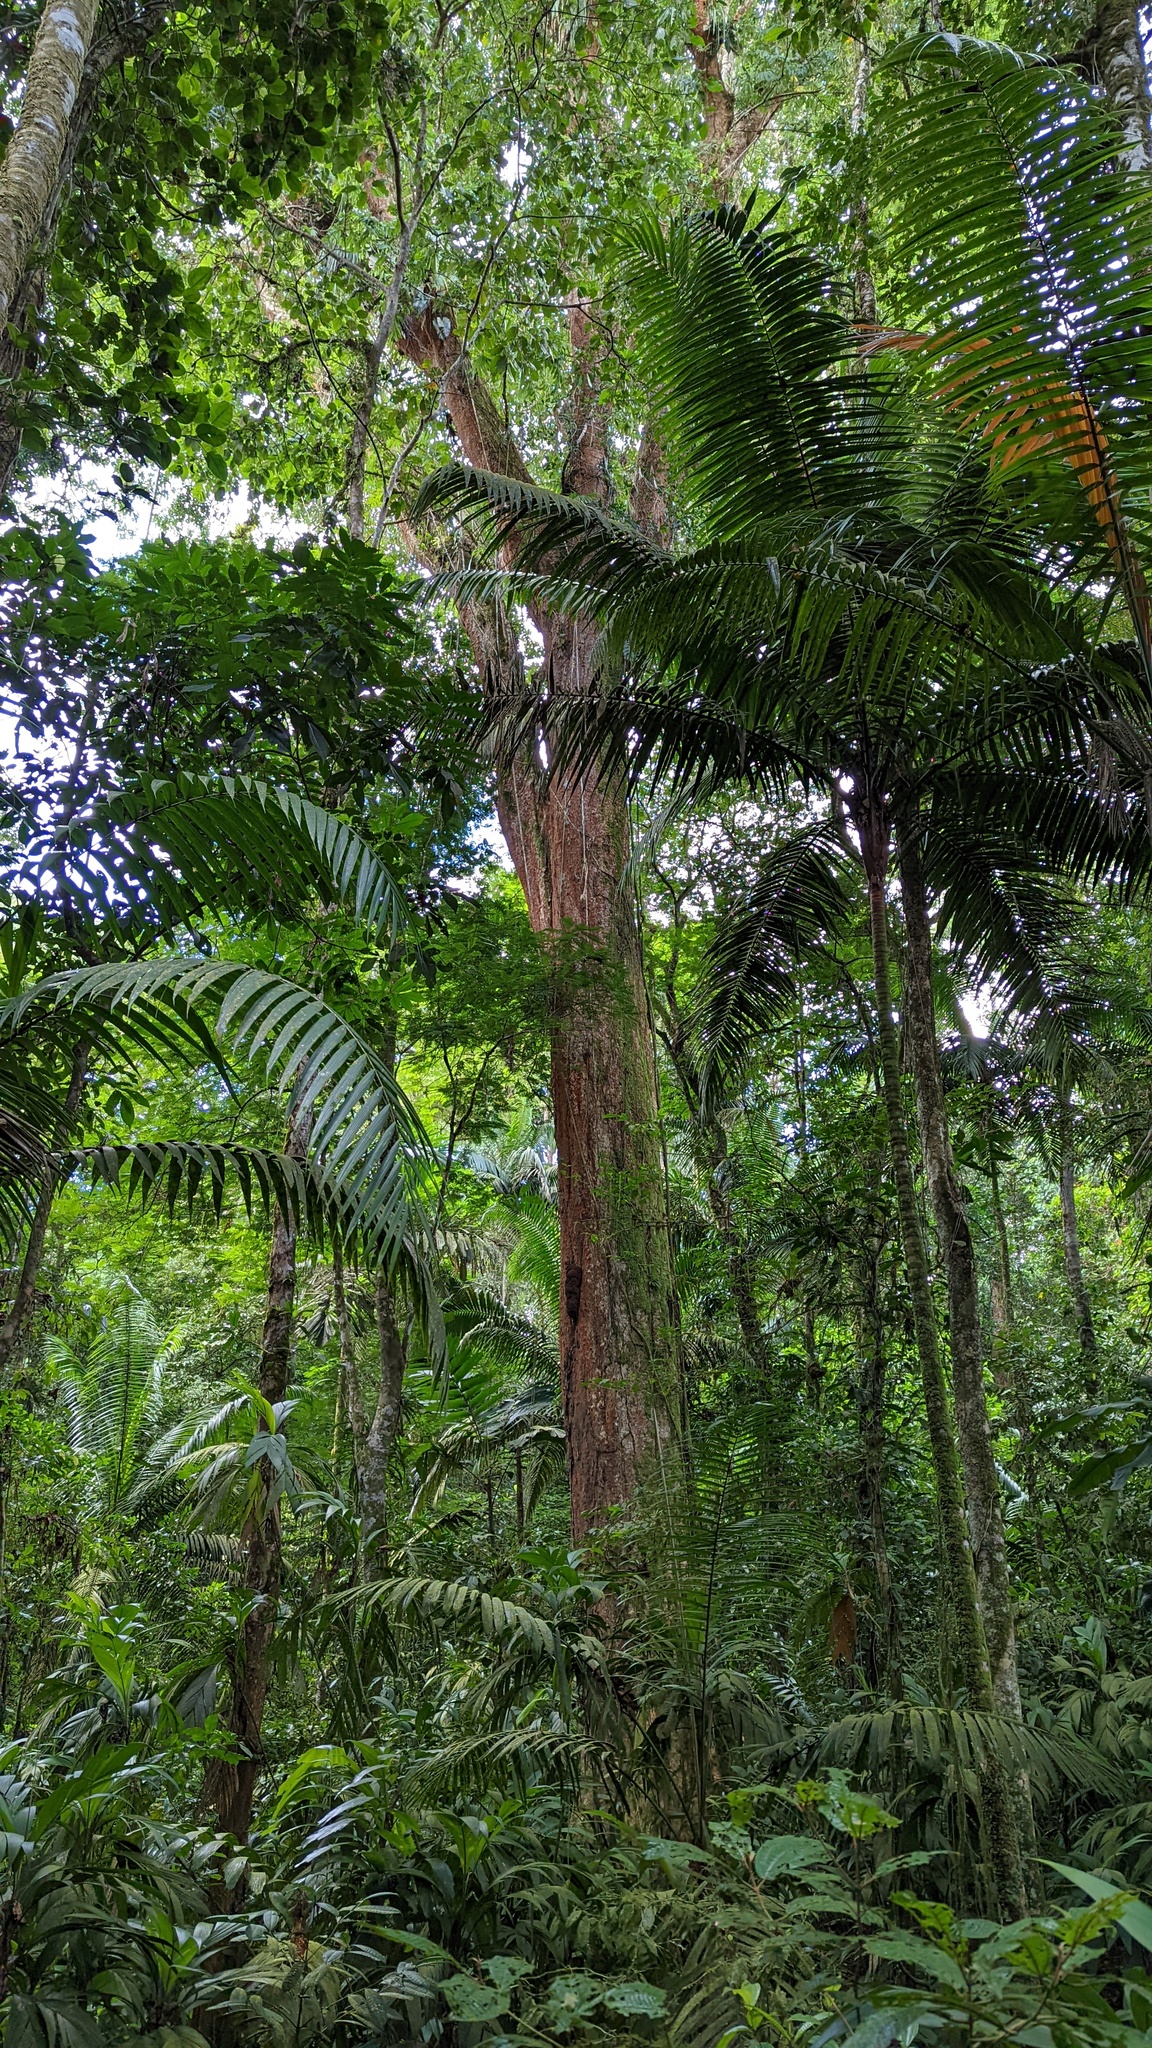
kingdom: Plantae
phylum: Tracheophyta
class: Magnoliopsida
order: Fabales
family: Fabaceae
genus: Dipteryx
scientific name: Dipteryx oleifera
